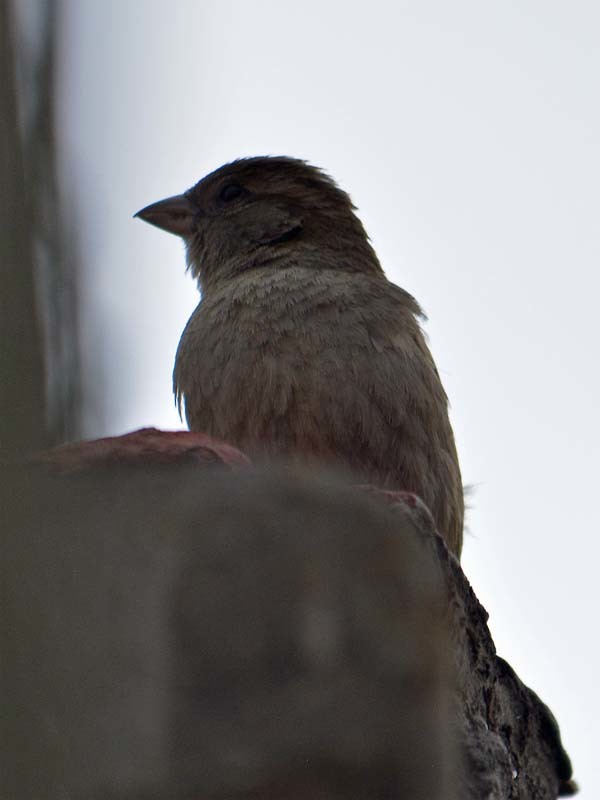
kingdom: Animalia
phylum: Chordata
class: Aves
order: Passeriformes
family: Passeridae
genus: Passer
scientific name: Passer domesticus
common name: House sparrow
